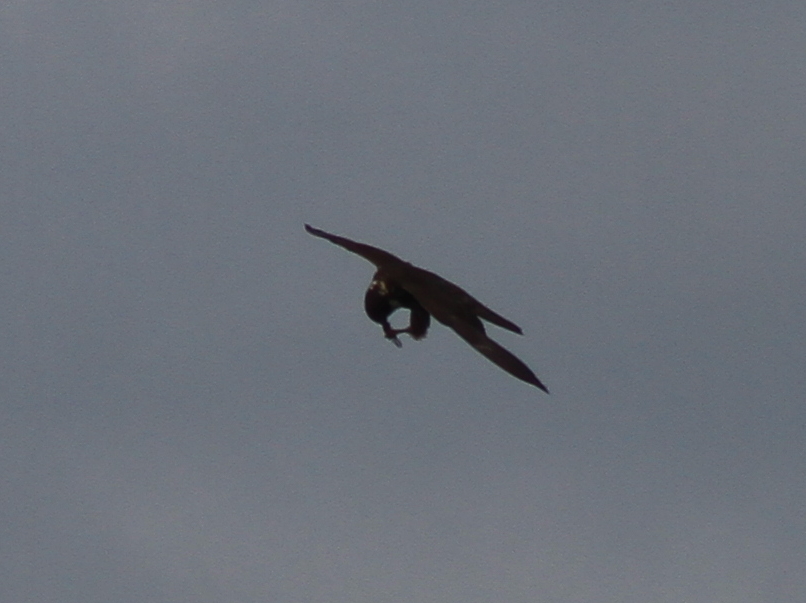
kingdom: Animalia
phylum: Chordata
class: Aves
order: Falconiformes
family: Falconidae
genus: Falco
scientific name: Falco subbuteo
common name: Eurasian hobby
